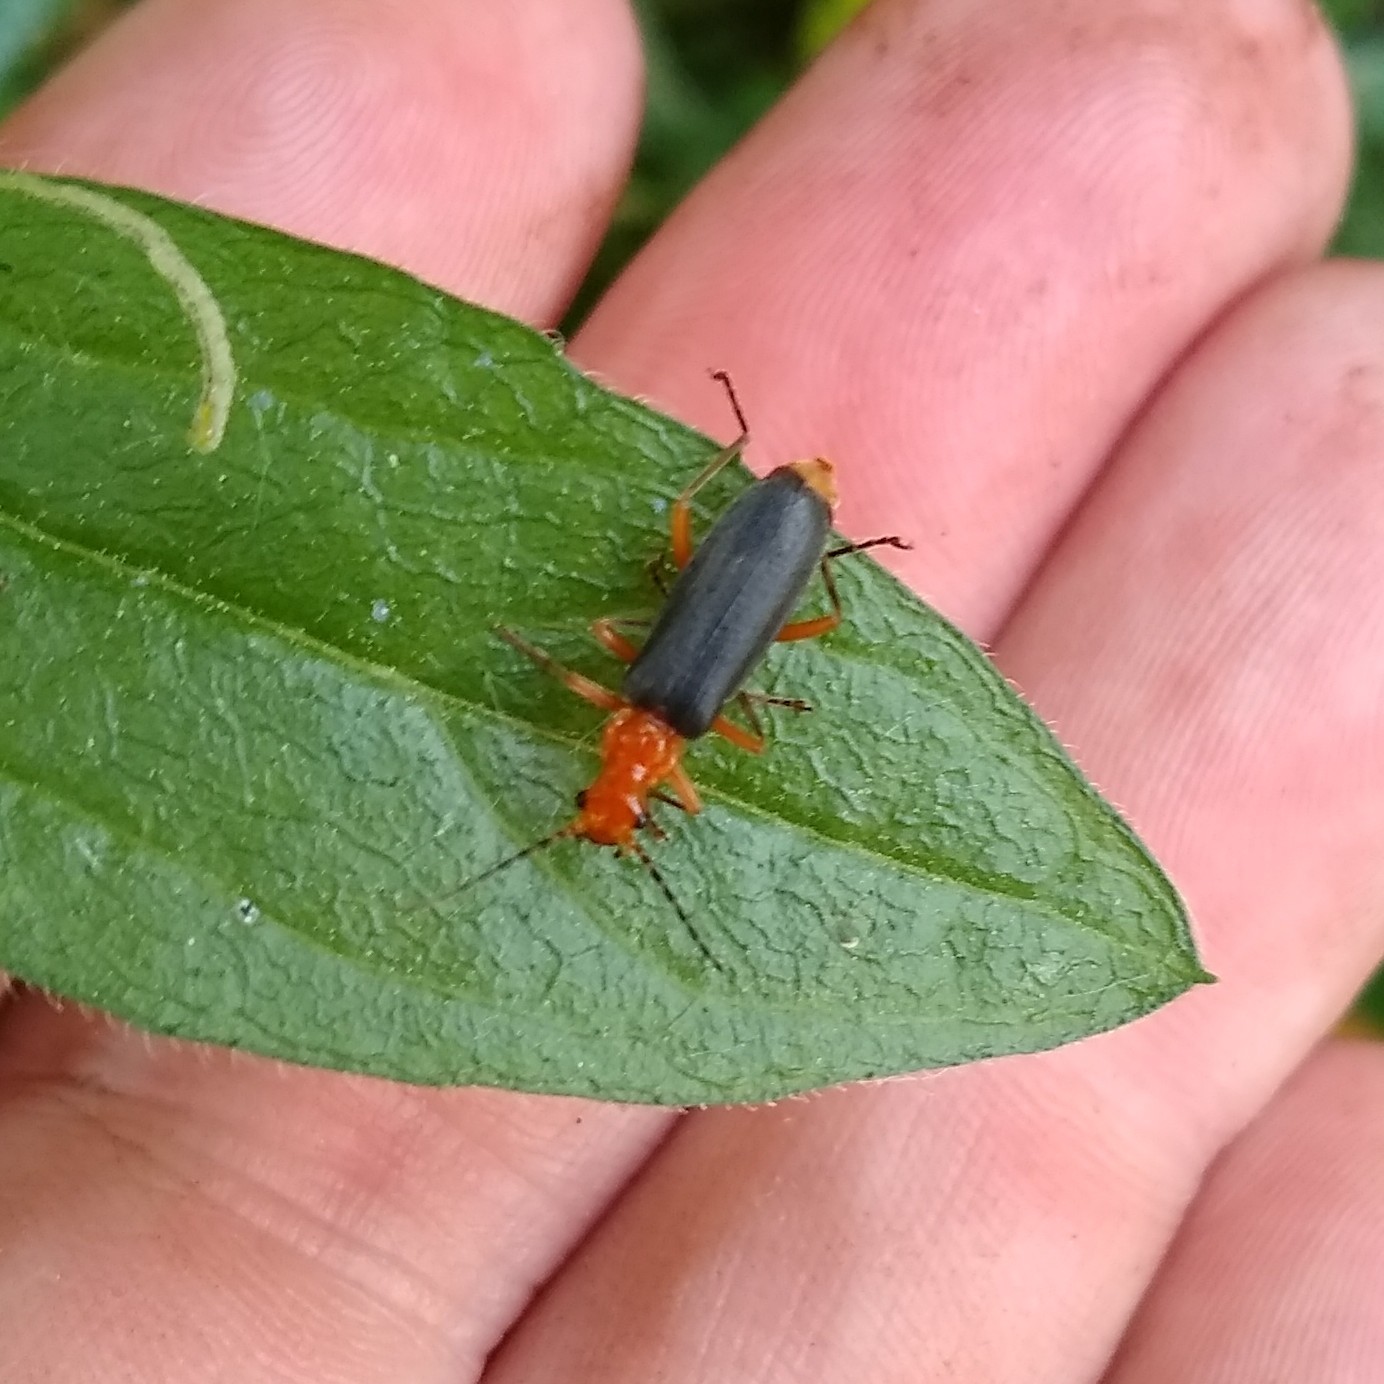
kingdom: Animalia
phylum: Arthropoda
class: Insecta
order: Coleoptera
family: Cantharidae
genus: Podabrus
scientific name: Podabrus tomentosus
